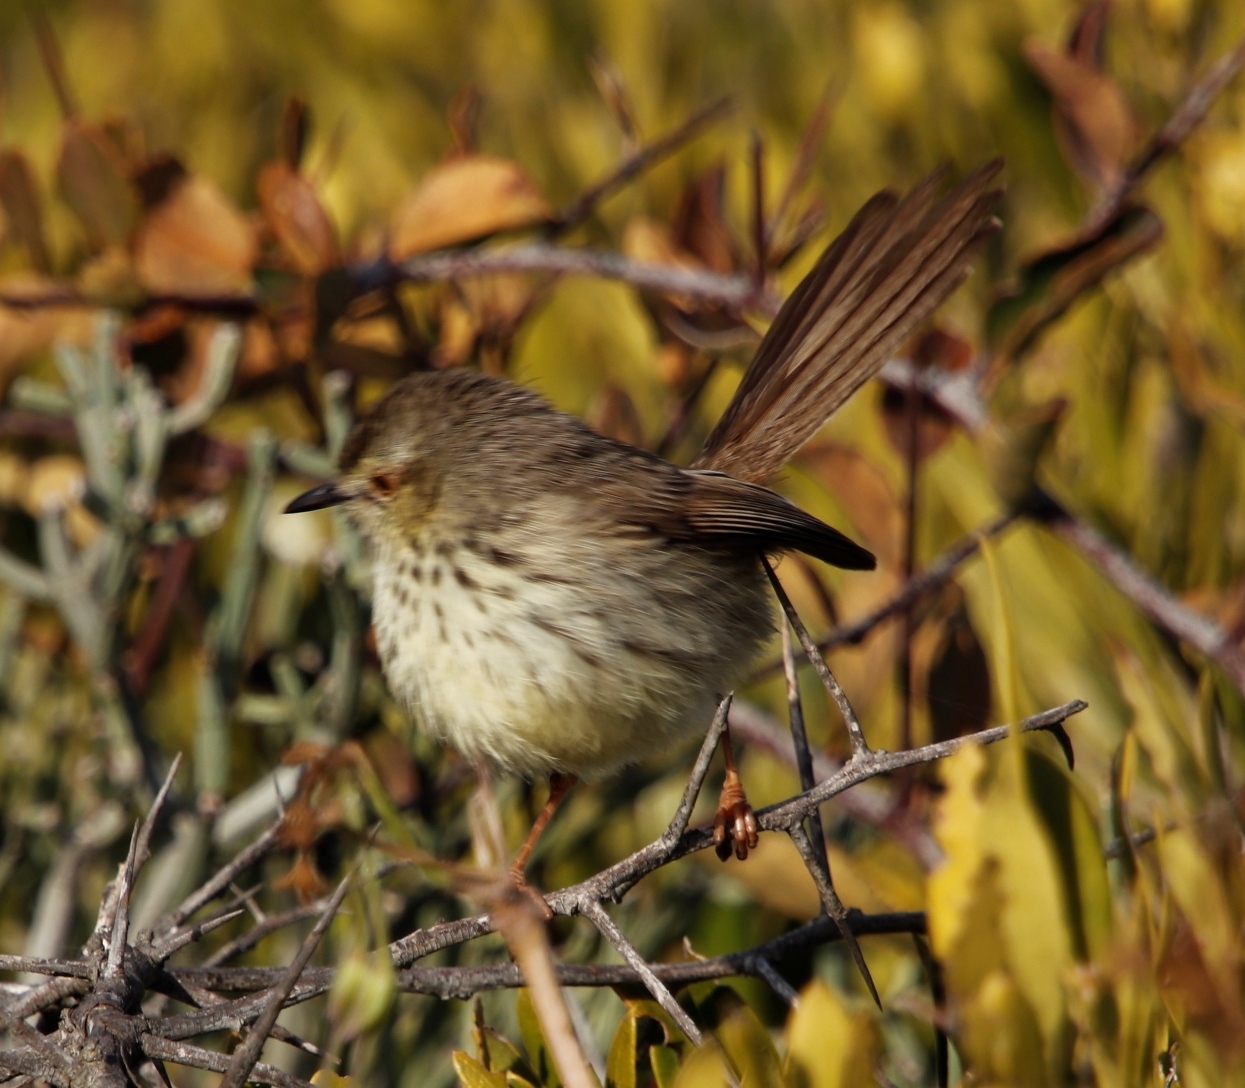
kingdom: Animalia
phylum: Chordata
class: Aves
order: Passeriformes
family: Cisticolidae
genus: Prinia
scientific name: Prinia maculosa
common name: Karoo prinia
